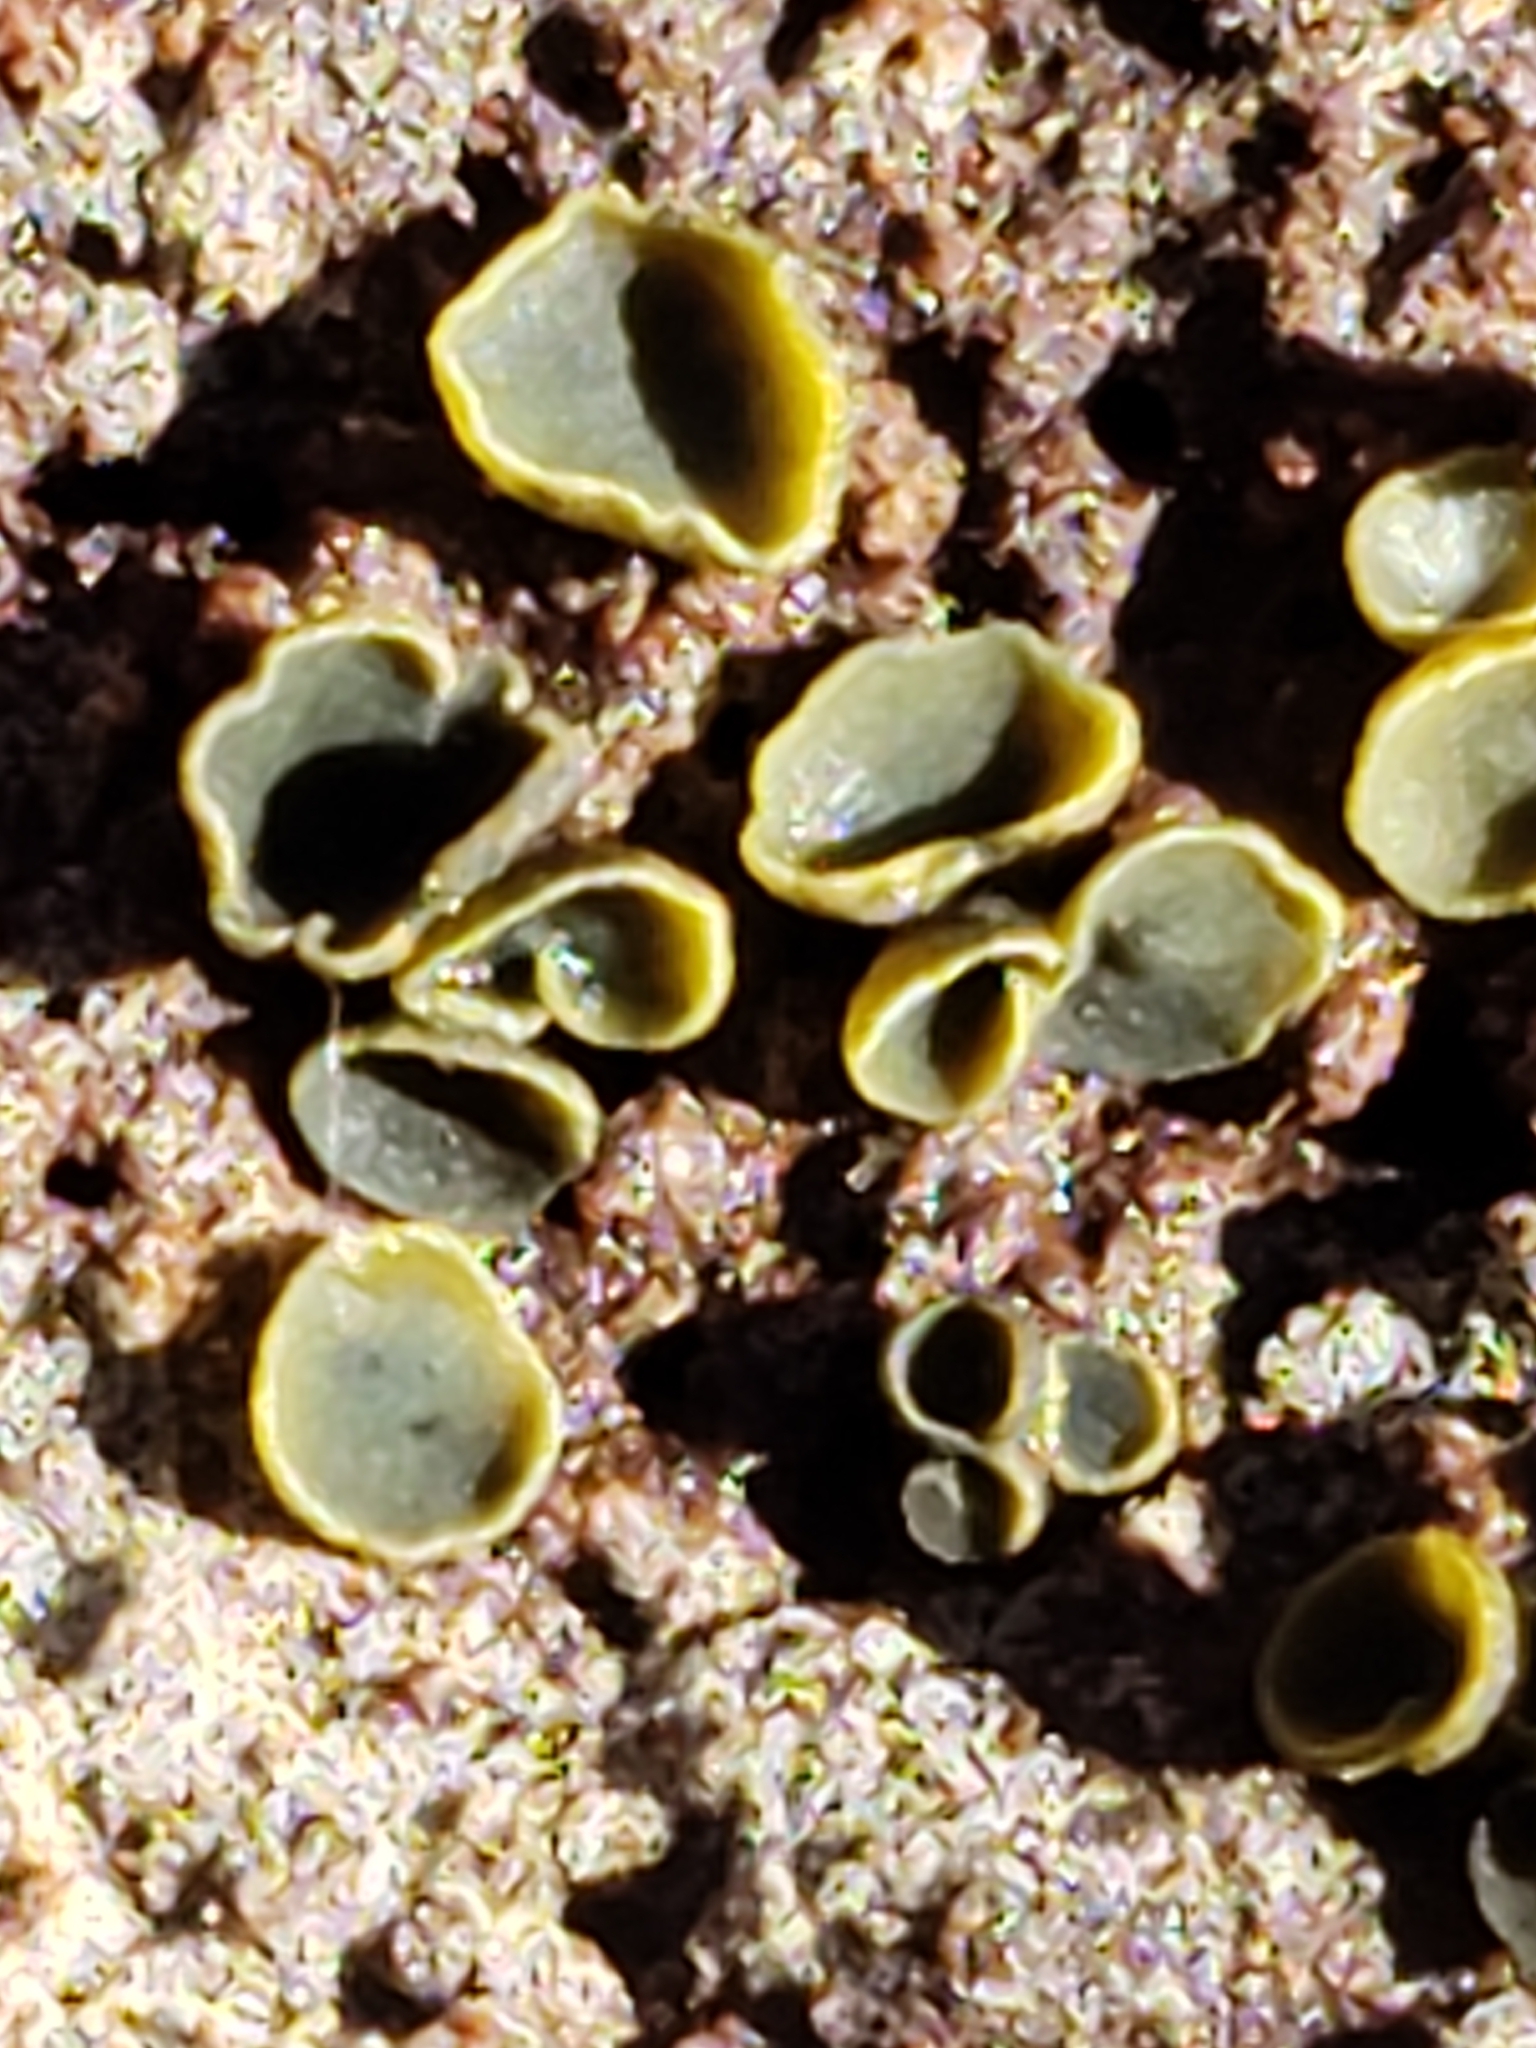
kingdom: Fungi
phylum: Ascomycota
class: Leotiomycetes
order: Helotiales
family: Chlorospleniaceae
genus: Chlorosplenium
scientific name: Chlorosplenium chlora
